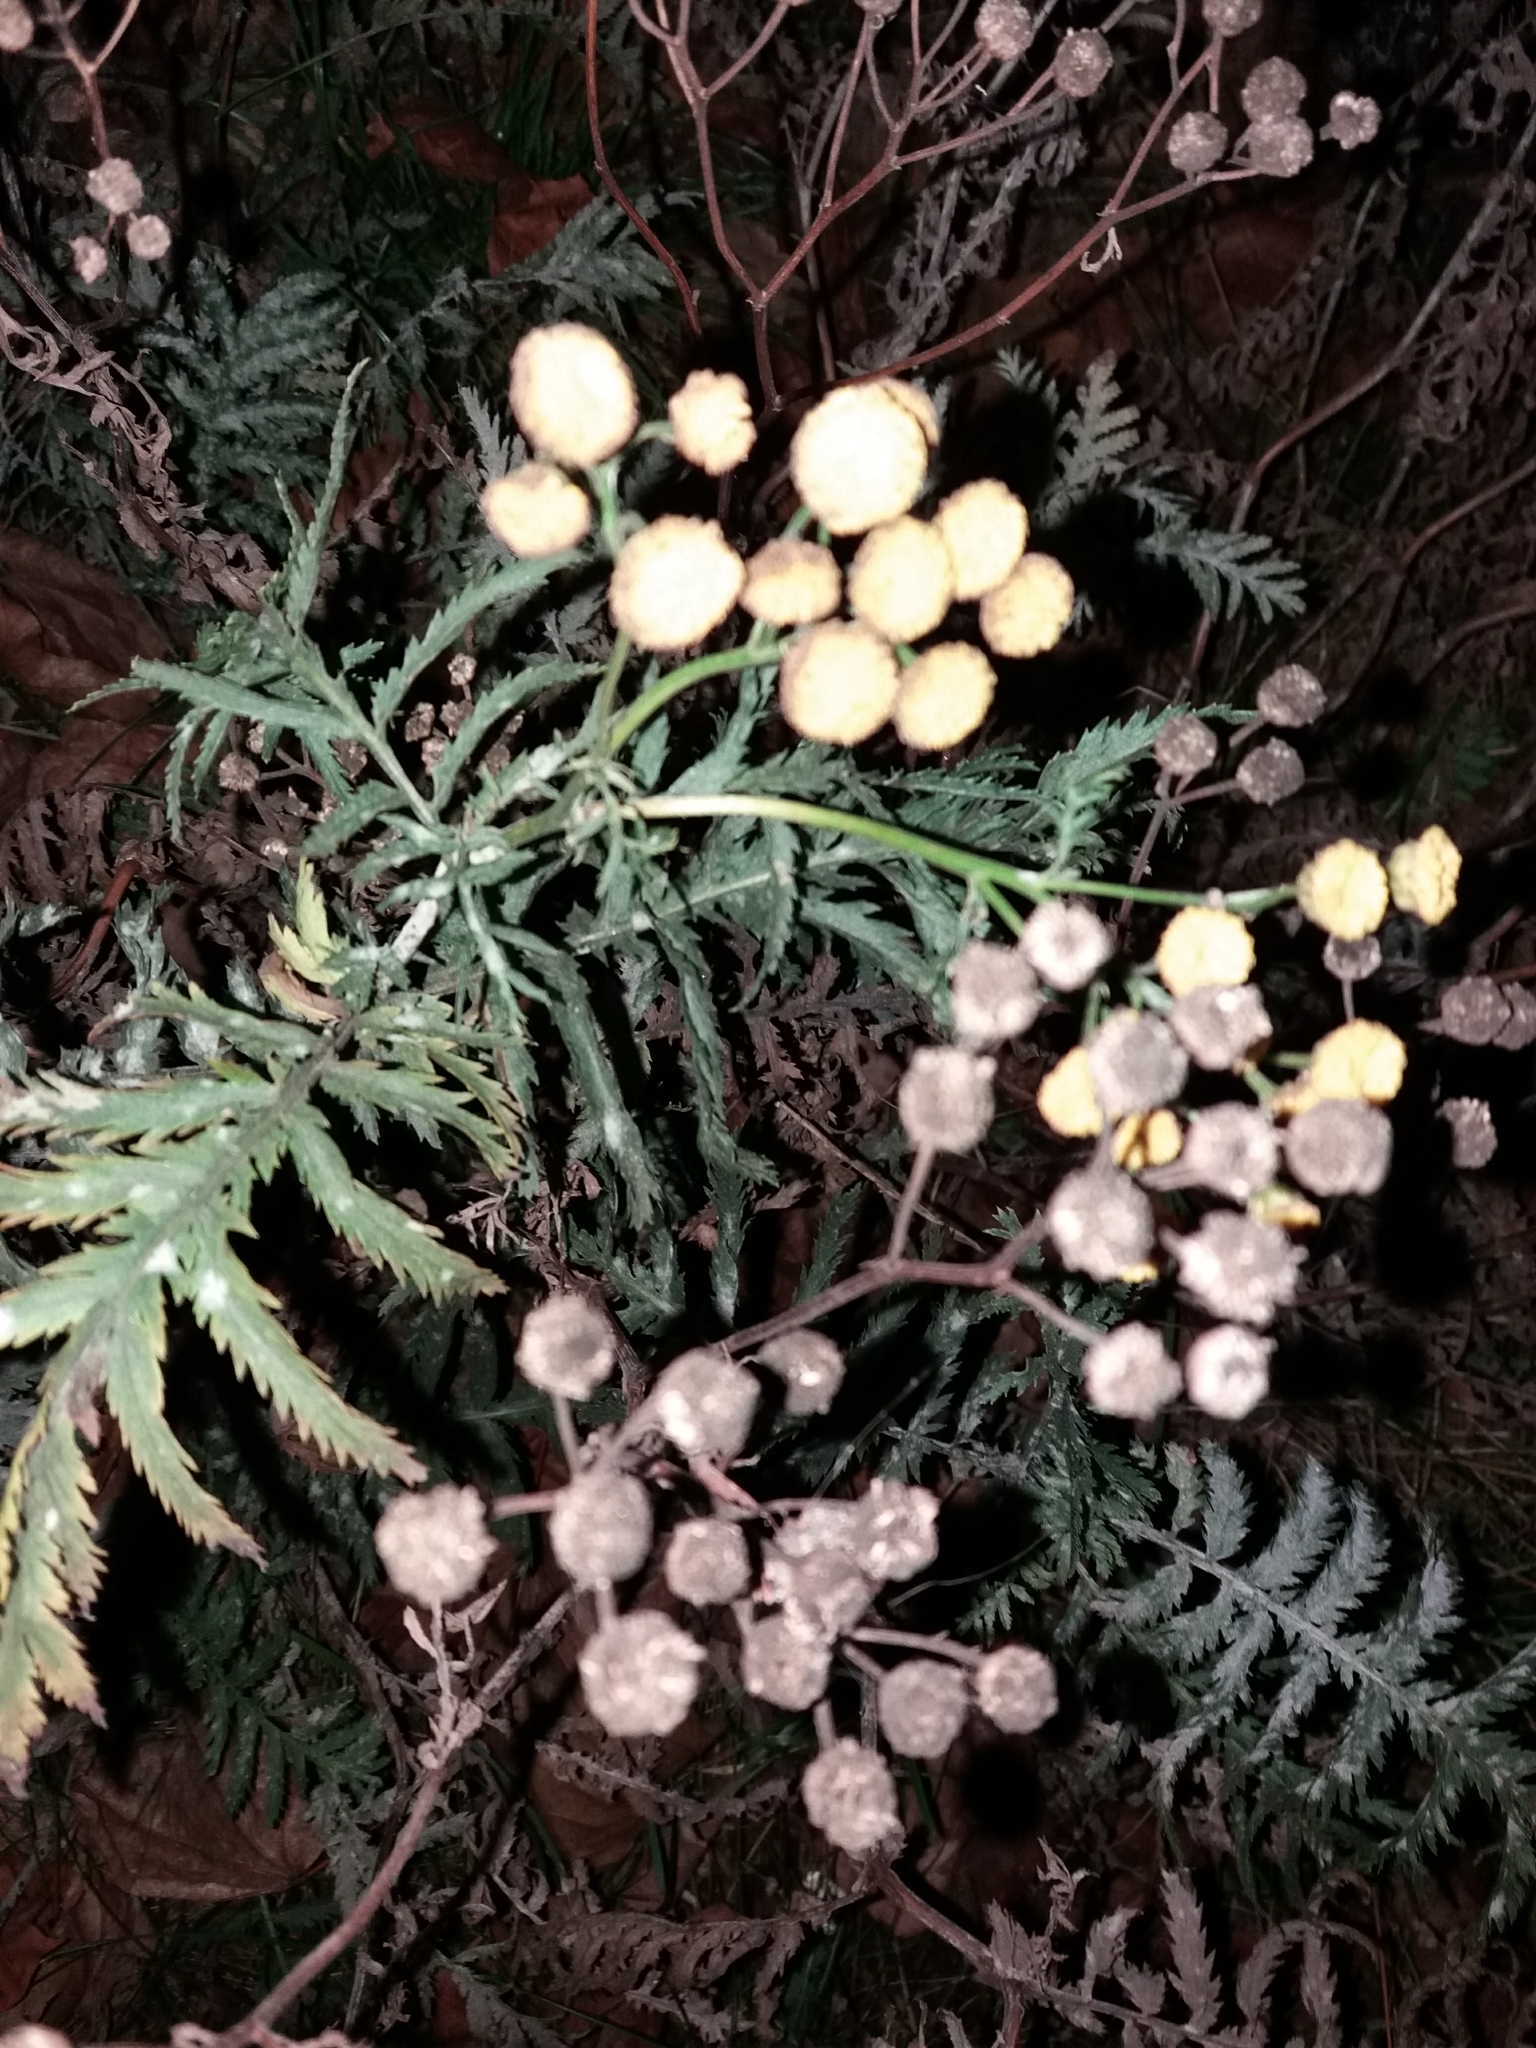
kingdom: Plantae
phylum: Tracheophyta
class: Magnoliopsida
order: Asterales
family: Asteraceae
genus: Tanacetum
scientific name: Tanacetum vulgare
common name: Common tansy
